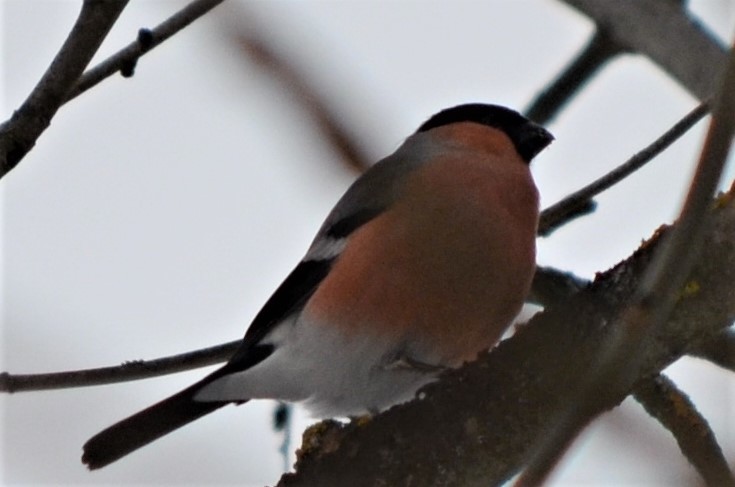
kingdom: Animalia
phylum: Chordata
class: Aves
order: Passeriformes
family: Fringillidae
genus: Pyrrhula
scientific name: Pyrrhula pyrrhula
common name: Eurasian bullfinch
